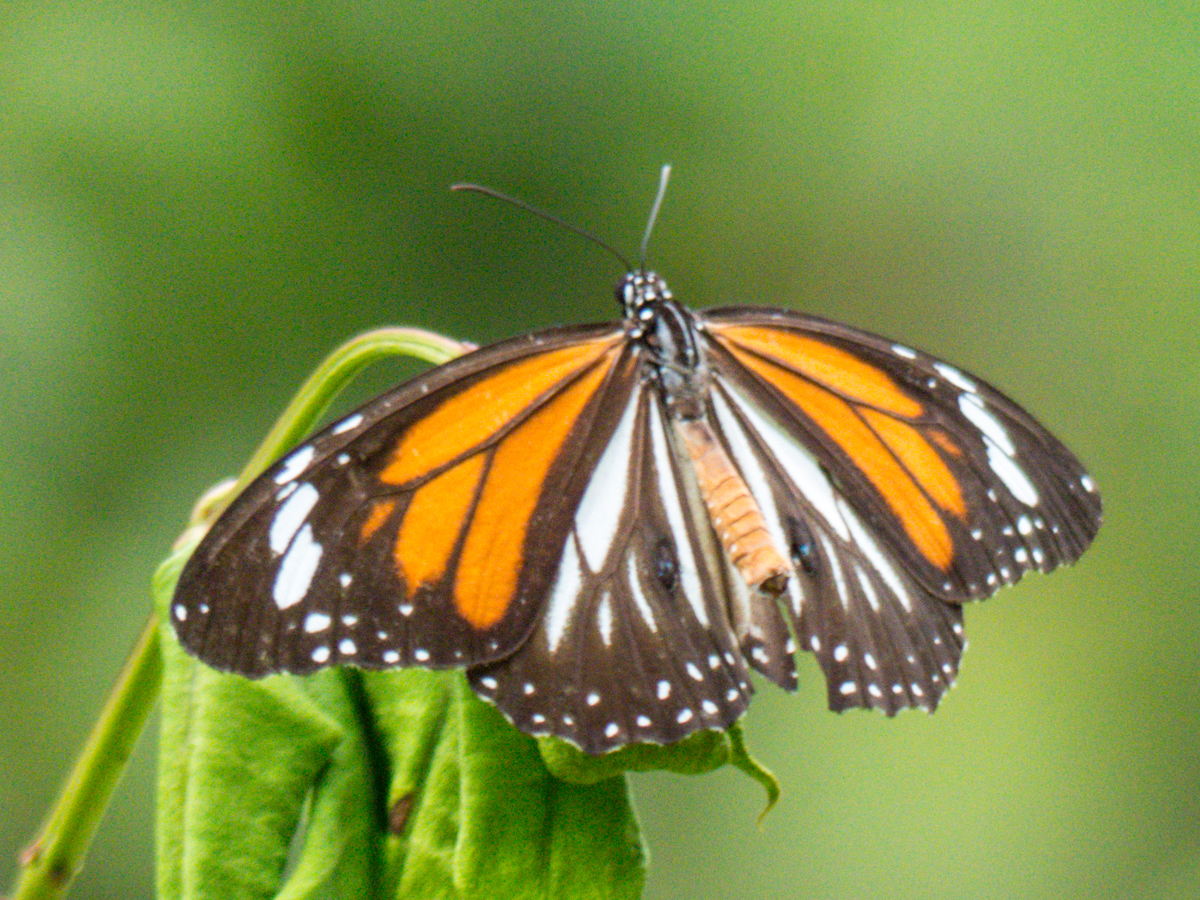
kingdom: Animalia
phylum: Arthropoda
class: Insecta
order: Lepidoptera
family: Nymphalidae
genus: Danaus
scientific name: Danaus melanippus
